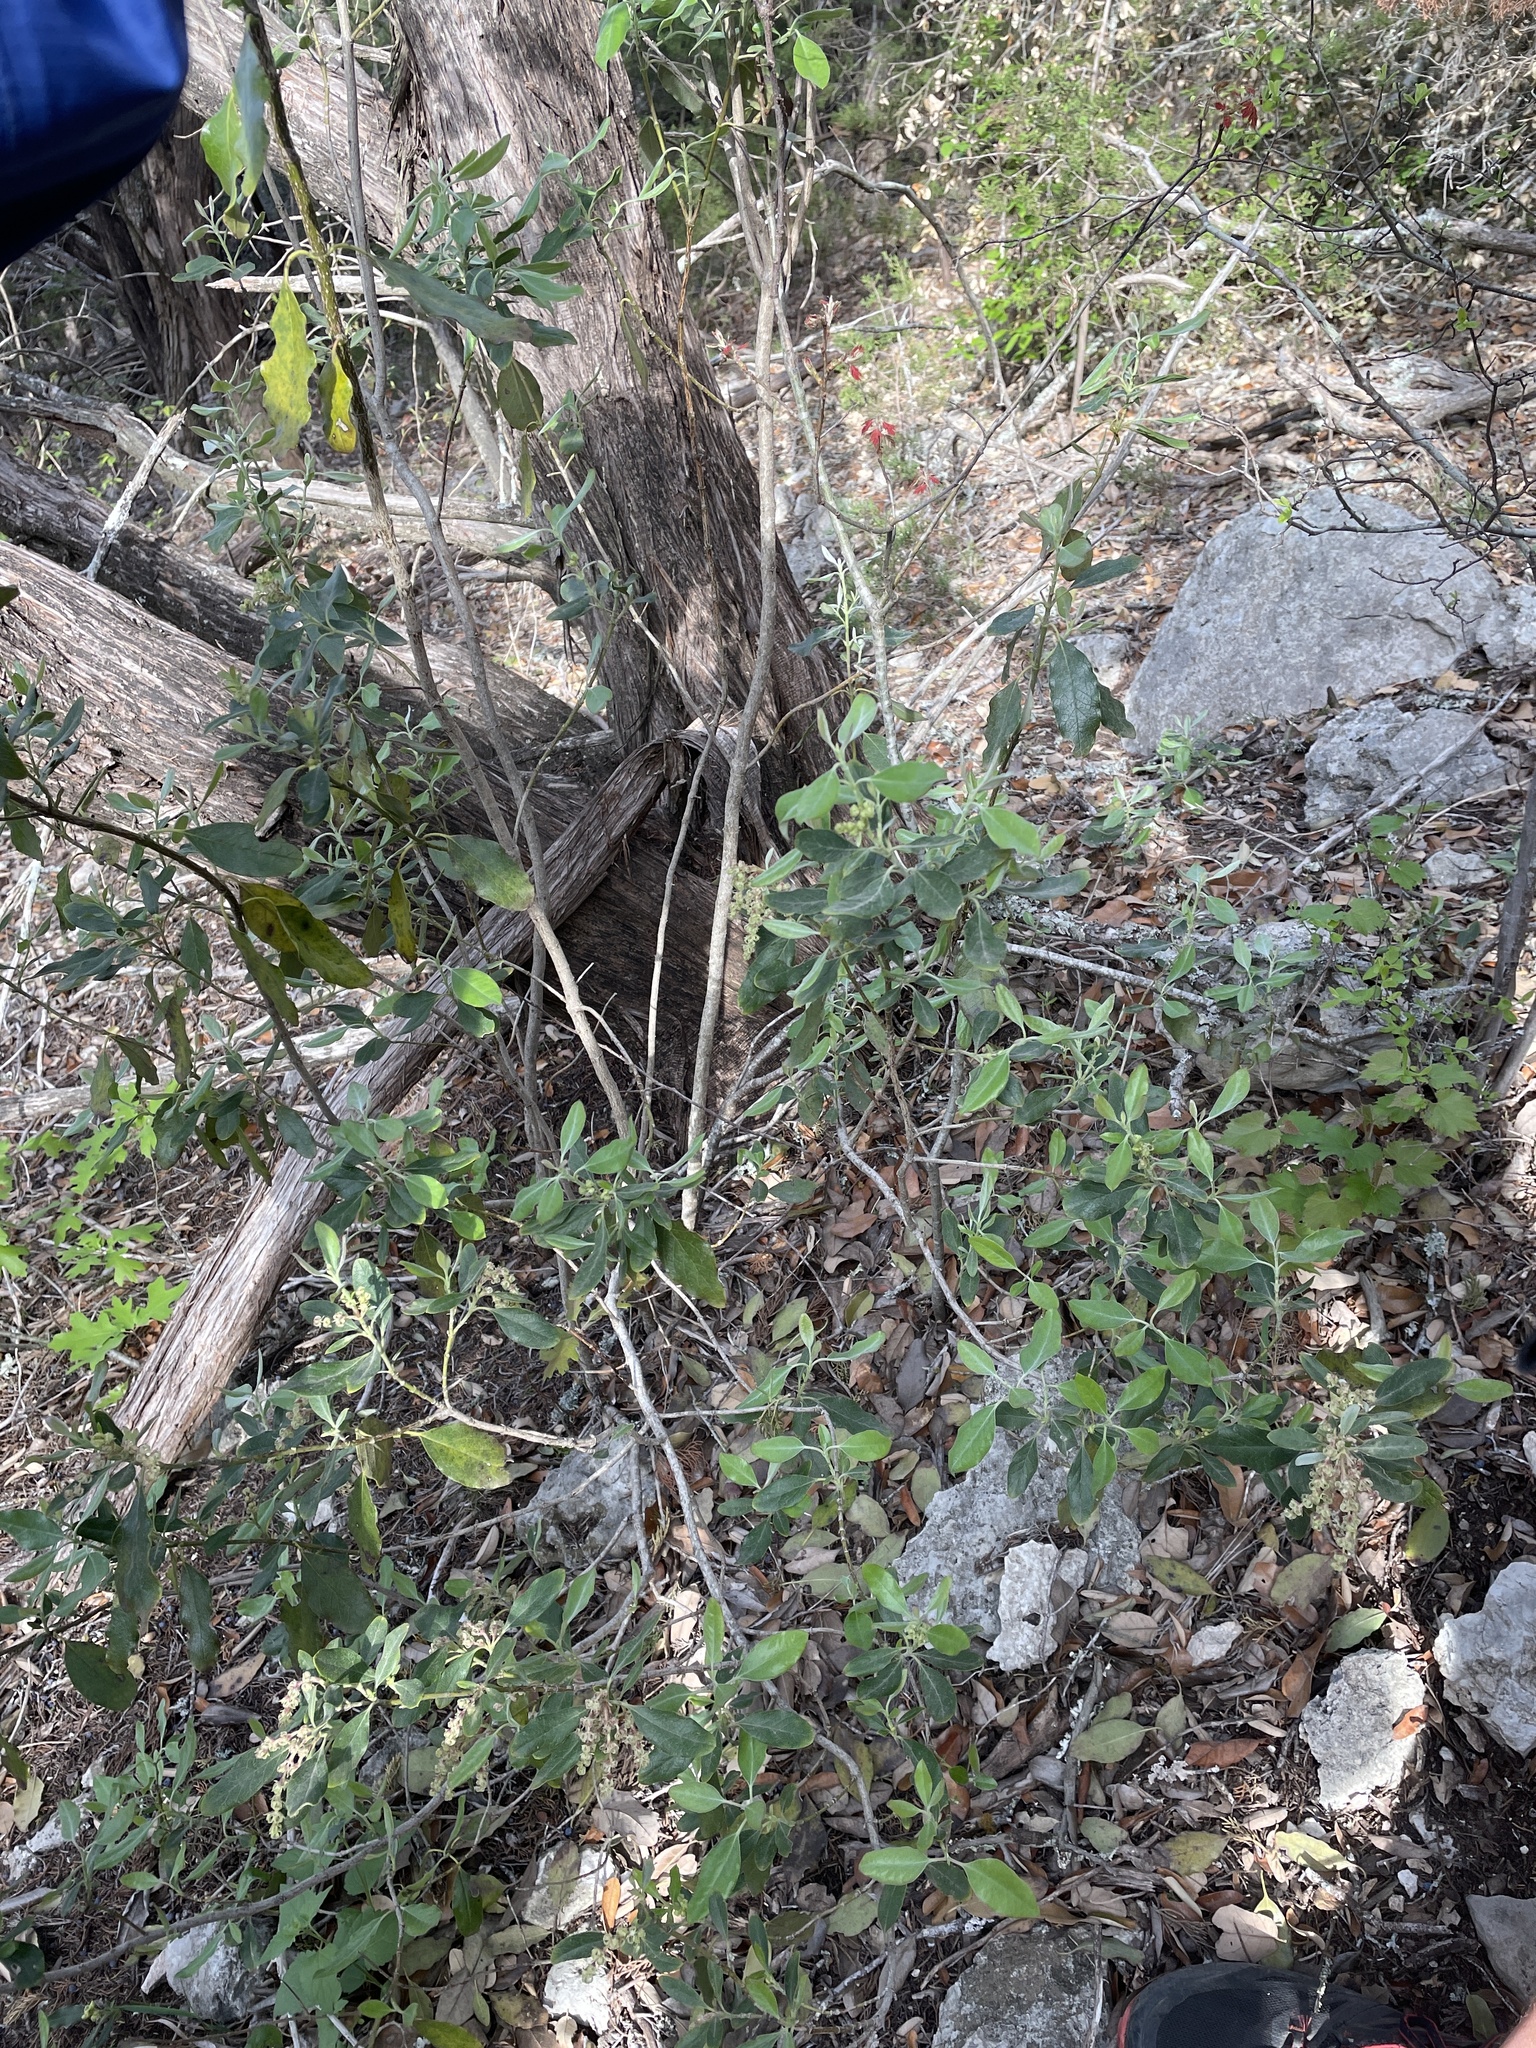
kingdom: Plantae
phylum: Tracheophyta
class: Magnoliopsida
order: Garryales
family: Garryaceae
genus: Garrya
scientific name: Garrya lindheimeri
